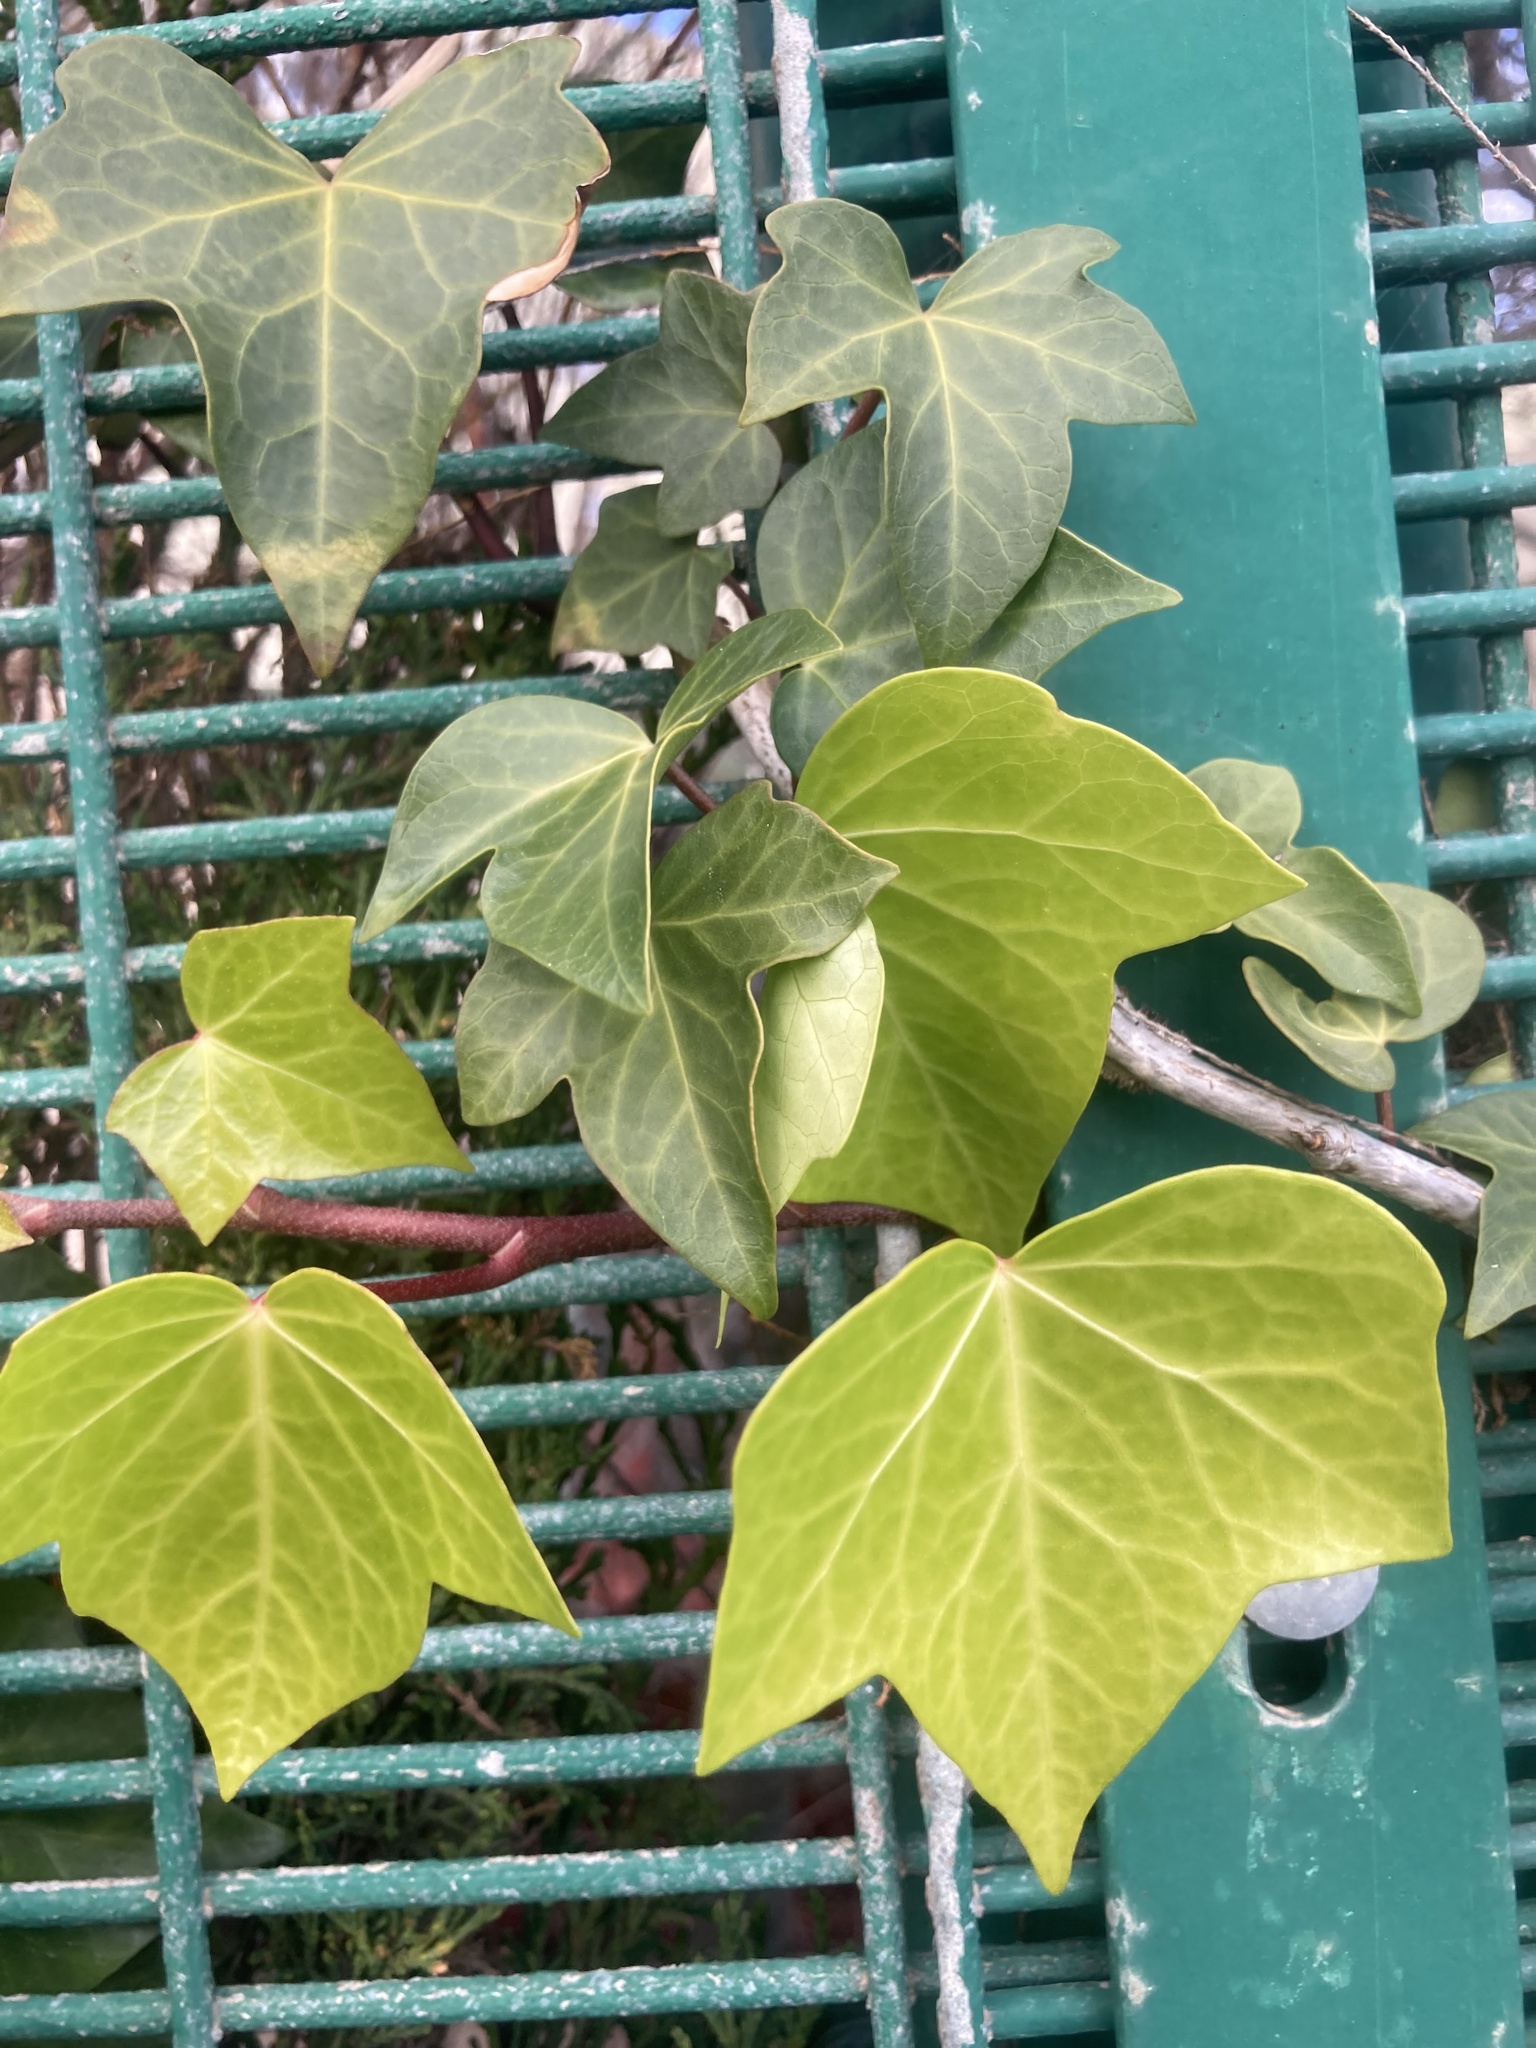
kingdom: Plantae
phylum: Tracheophyta
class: Magnoliopsida
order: Apiales
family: Araliaceae
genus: Hedera
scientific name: Hedera helix
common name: Ivy
